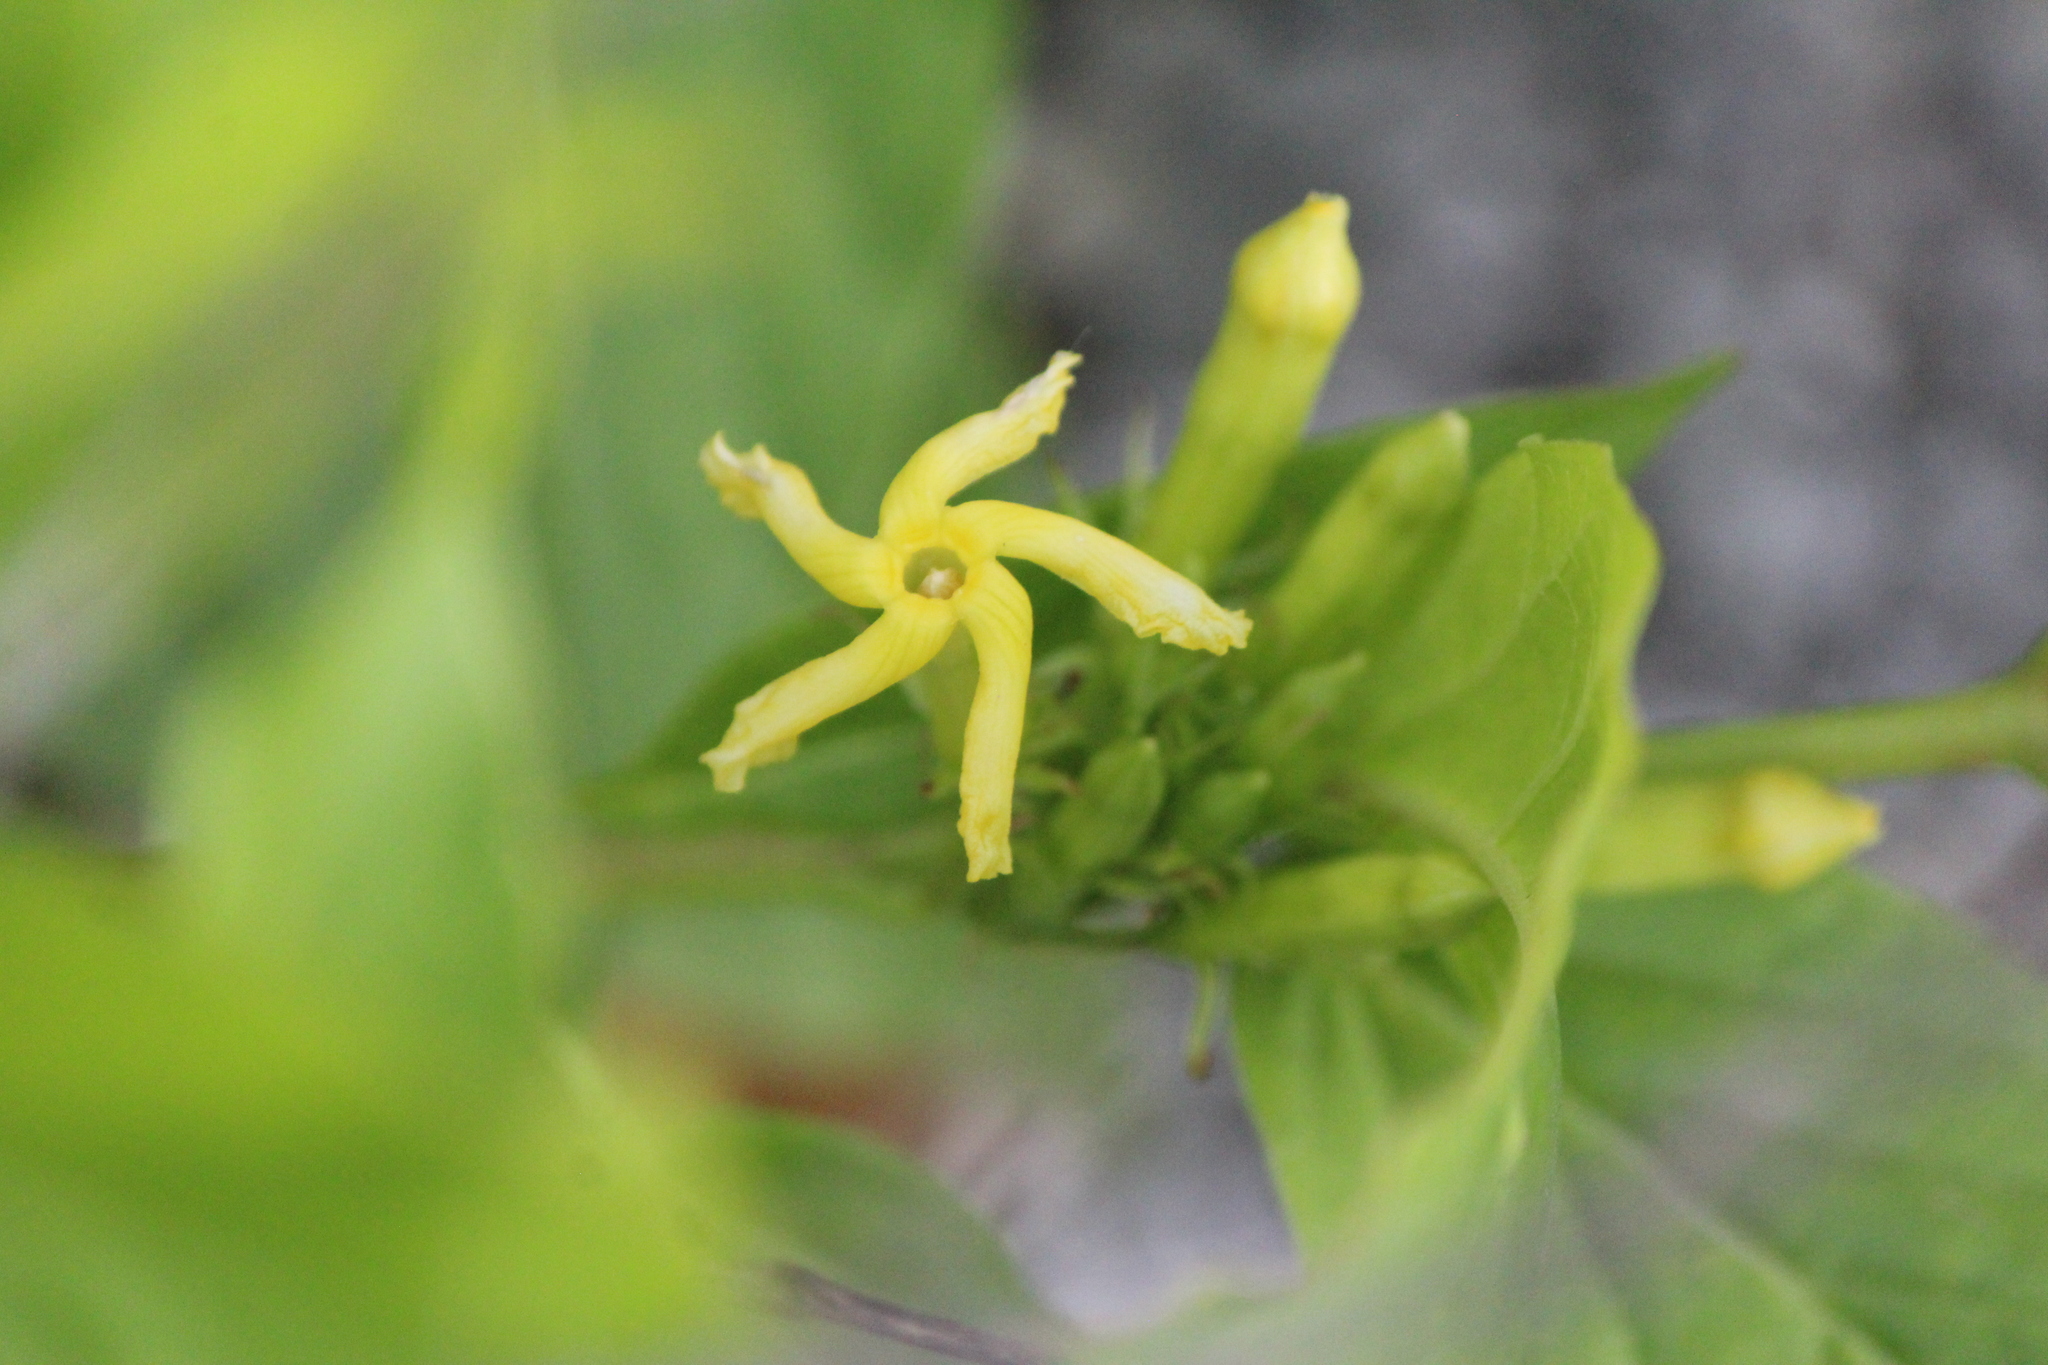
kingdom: Plantae
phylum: Tracheophyta
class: Magnoliopsida
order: Gentianales
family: Apocynaceae
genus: Mandevilla
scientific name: Mandevilla foliosa
